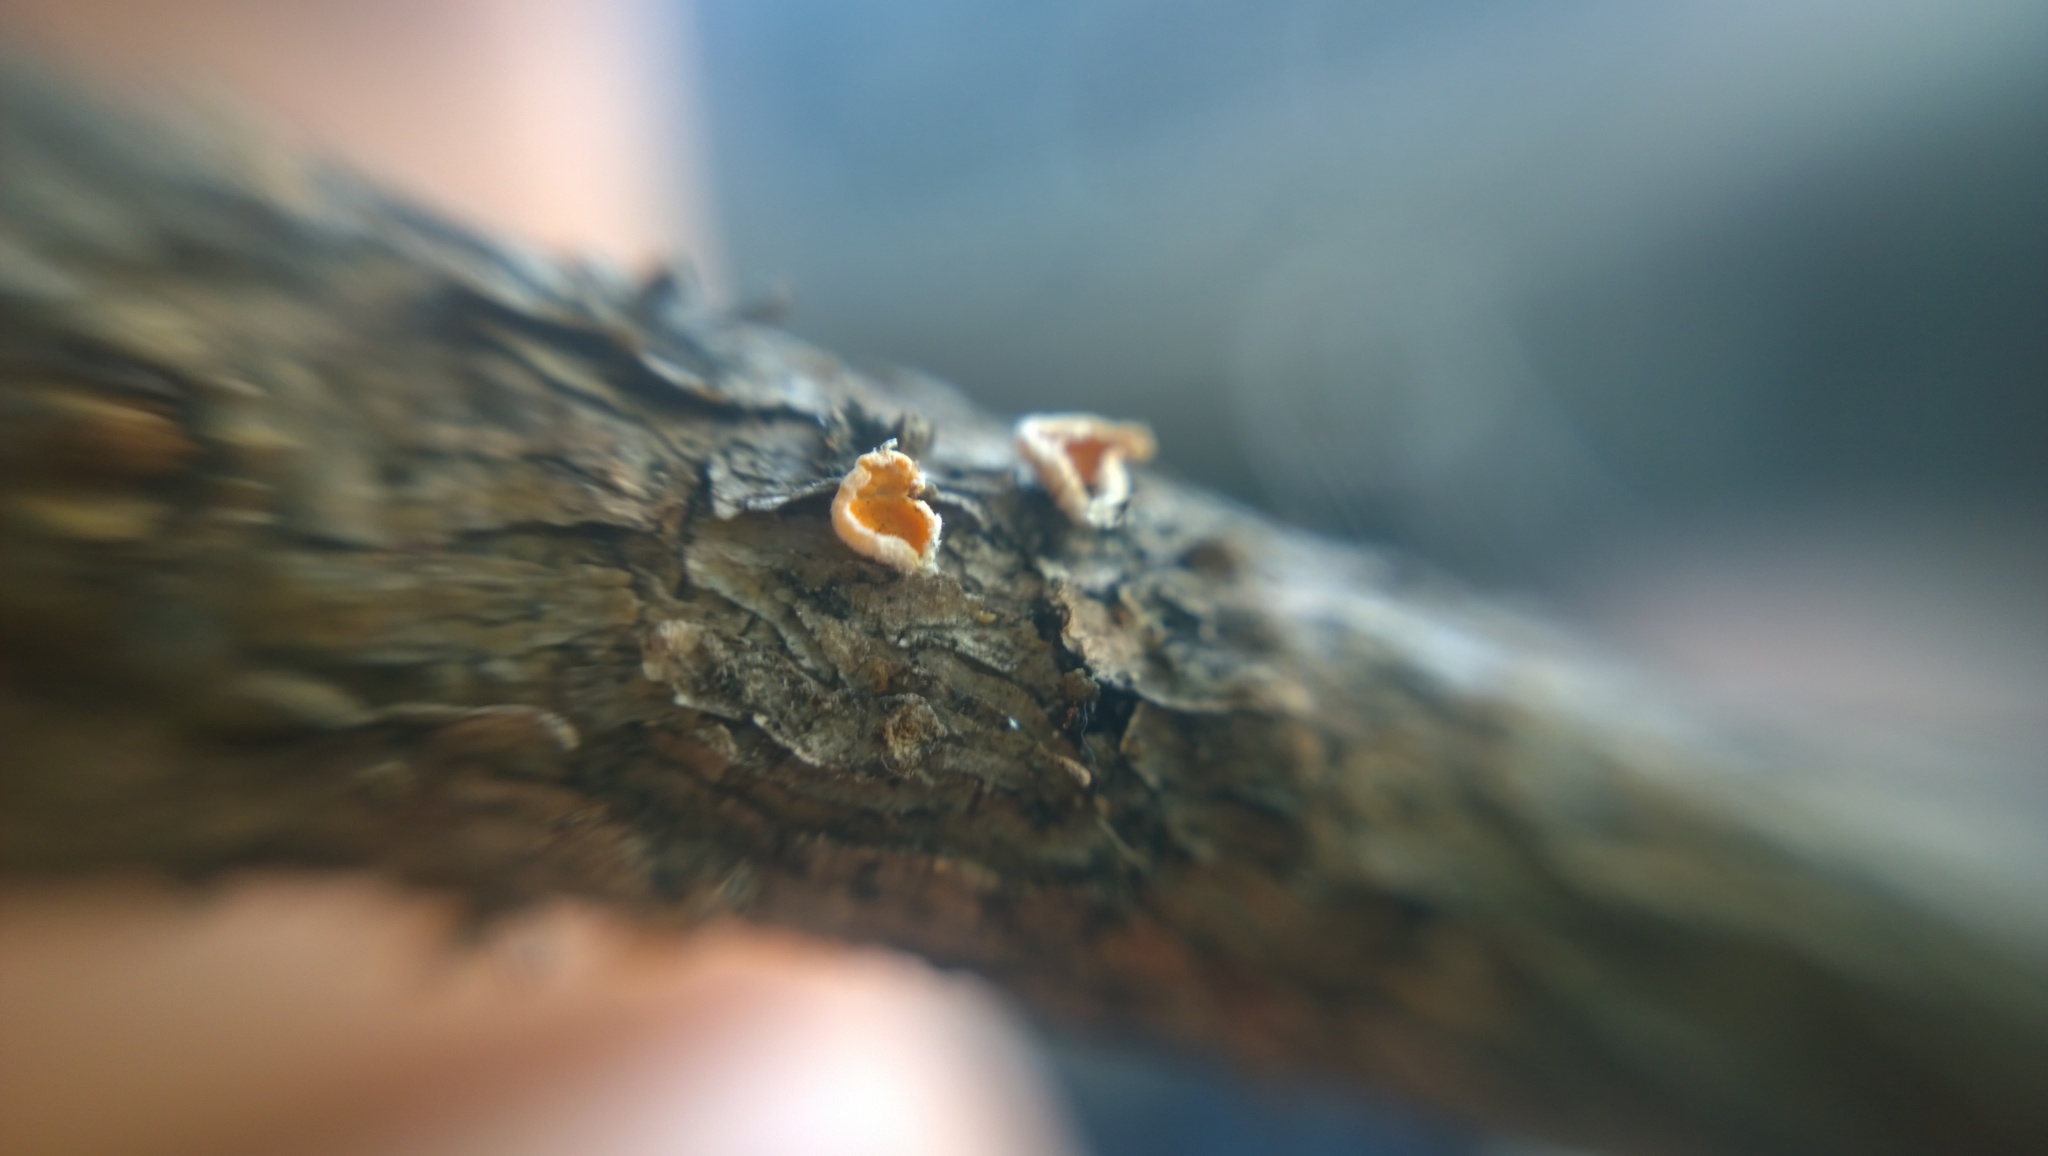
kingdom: Fungi
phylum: Ascomycota
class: Leotiomycetes
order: Helotiales
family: Lachnaceae
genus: Lachnellula
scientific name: Lachnellula suecica
